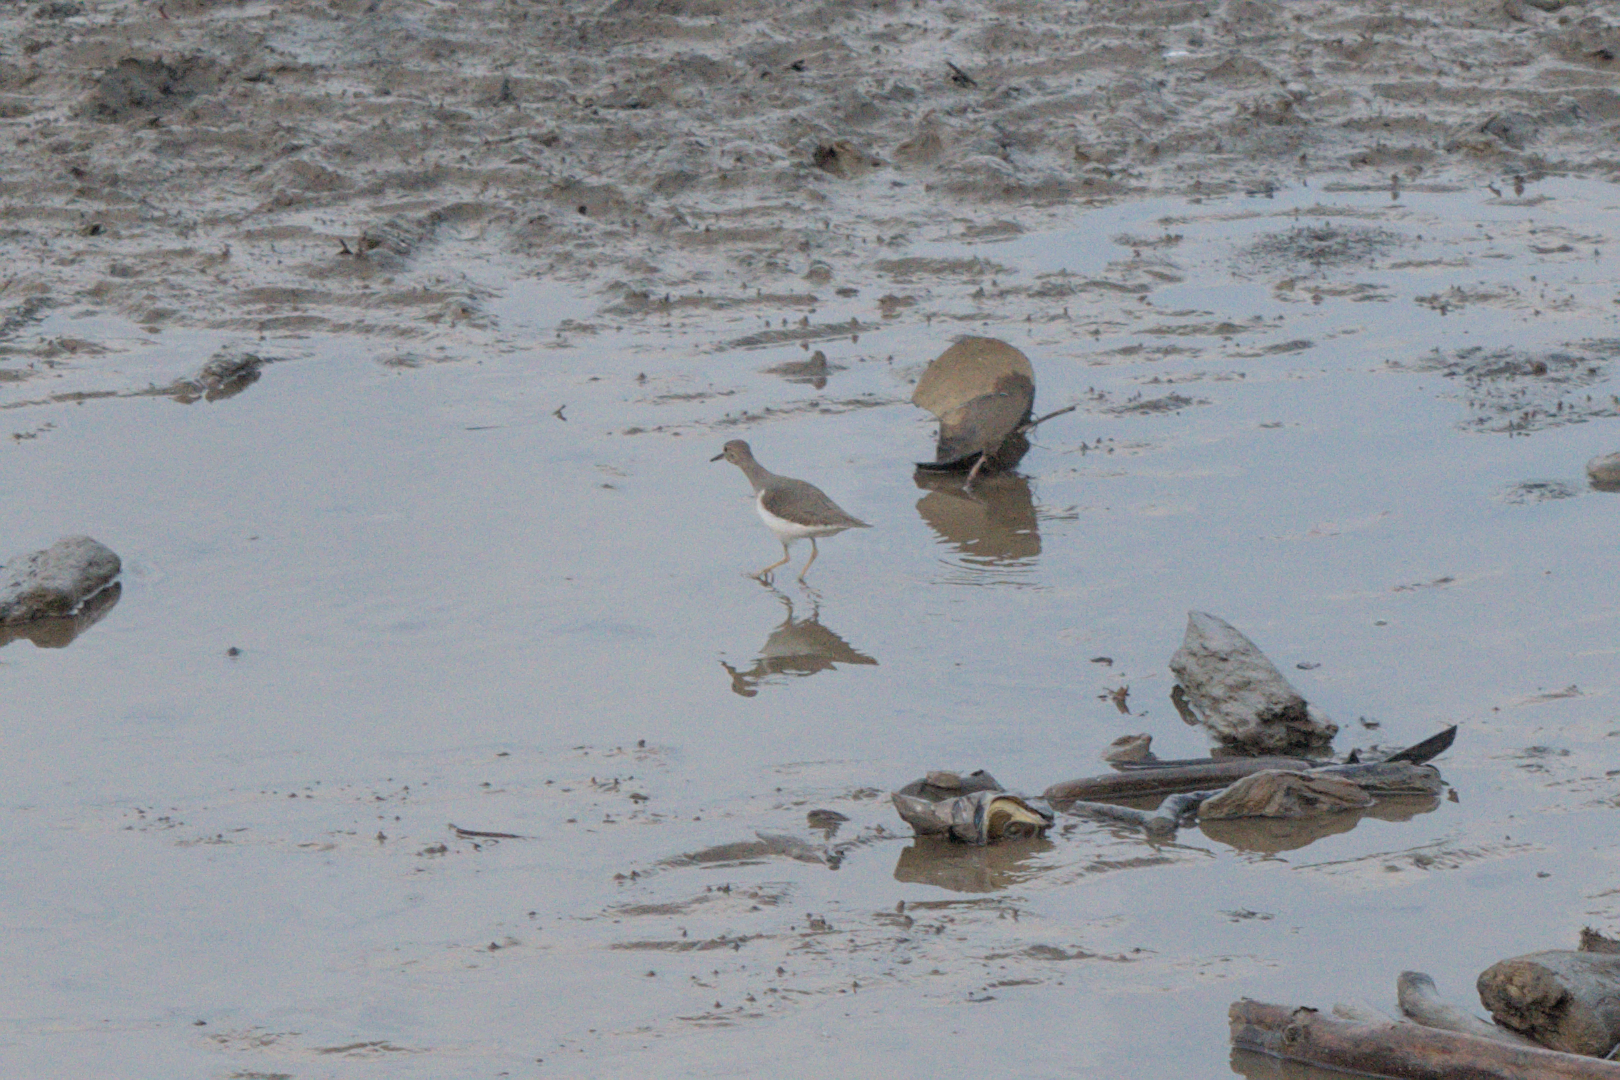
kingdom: Animalia
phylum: Chordata
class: Aves
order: Charadriiformes
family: Scolopacidae
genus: Actitis
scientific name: Actitis macularius
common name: Spotted sandpiper
